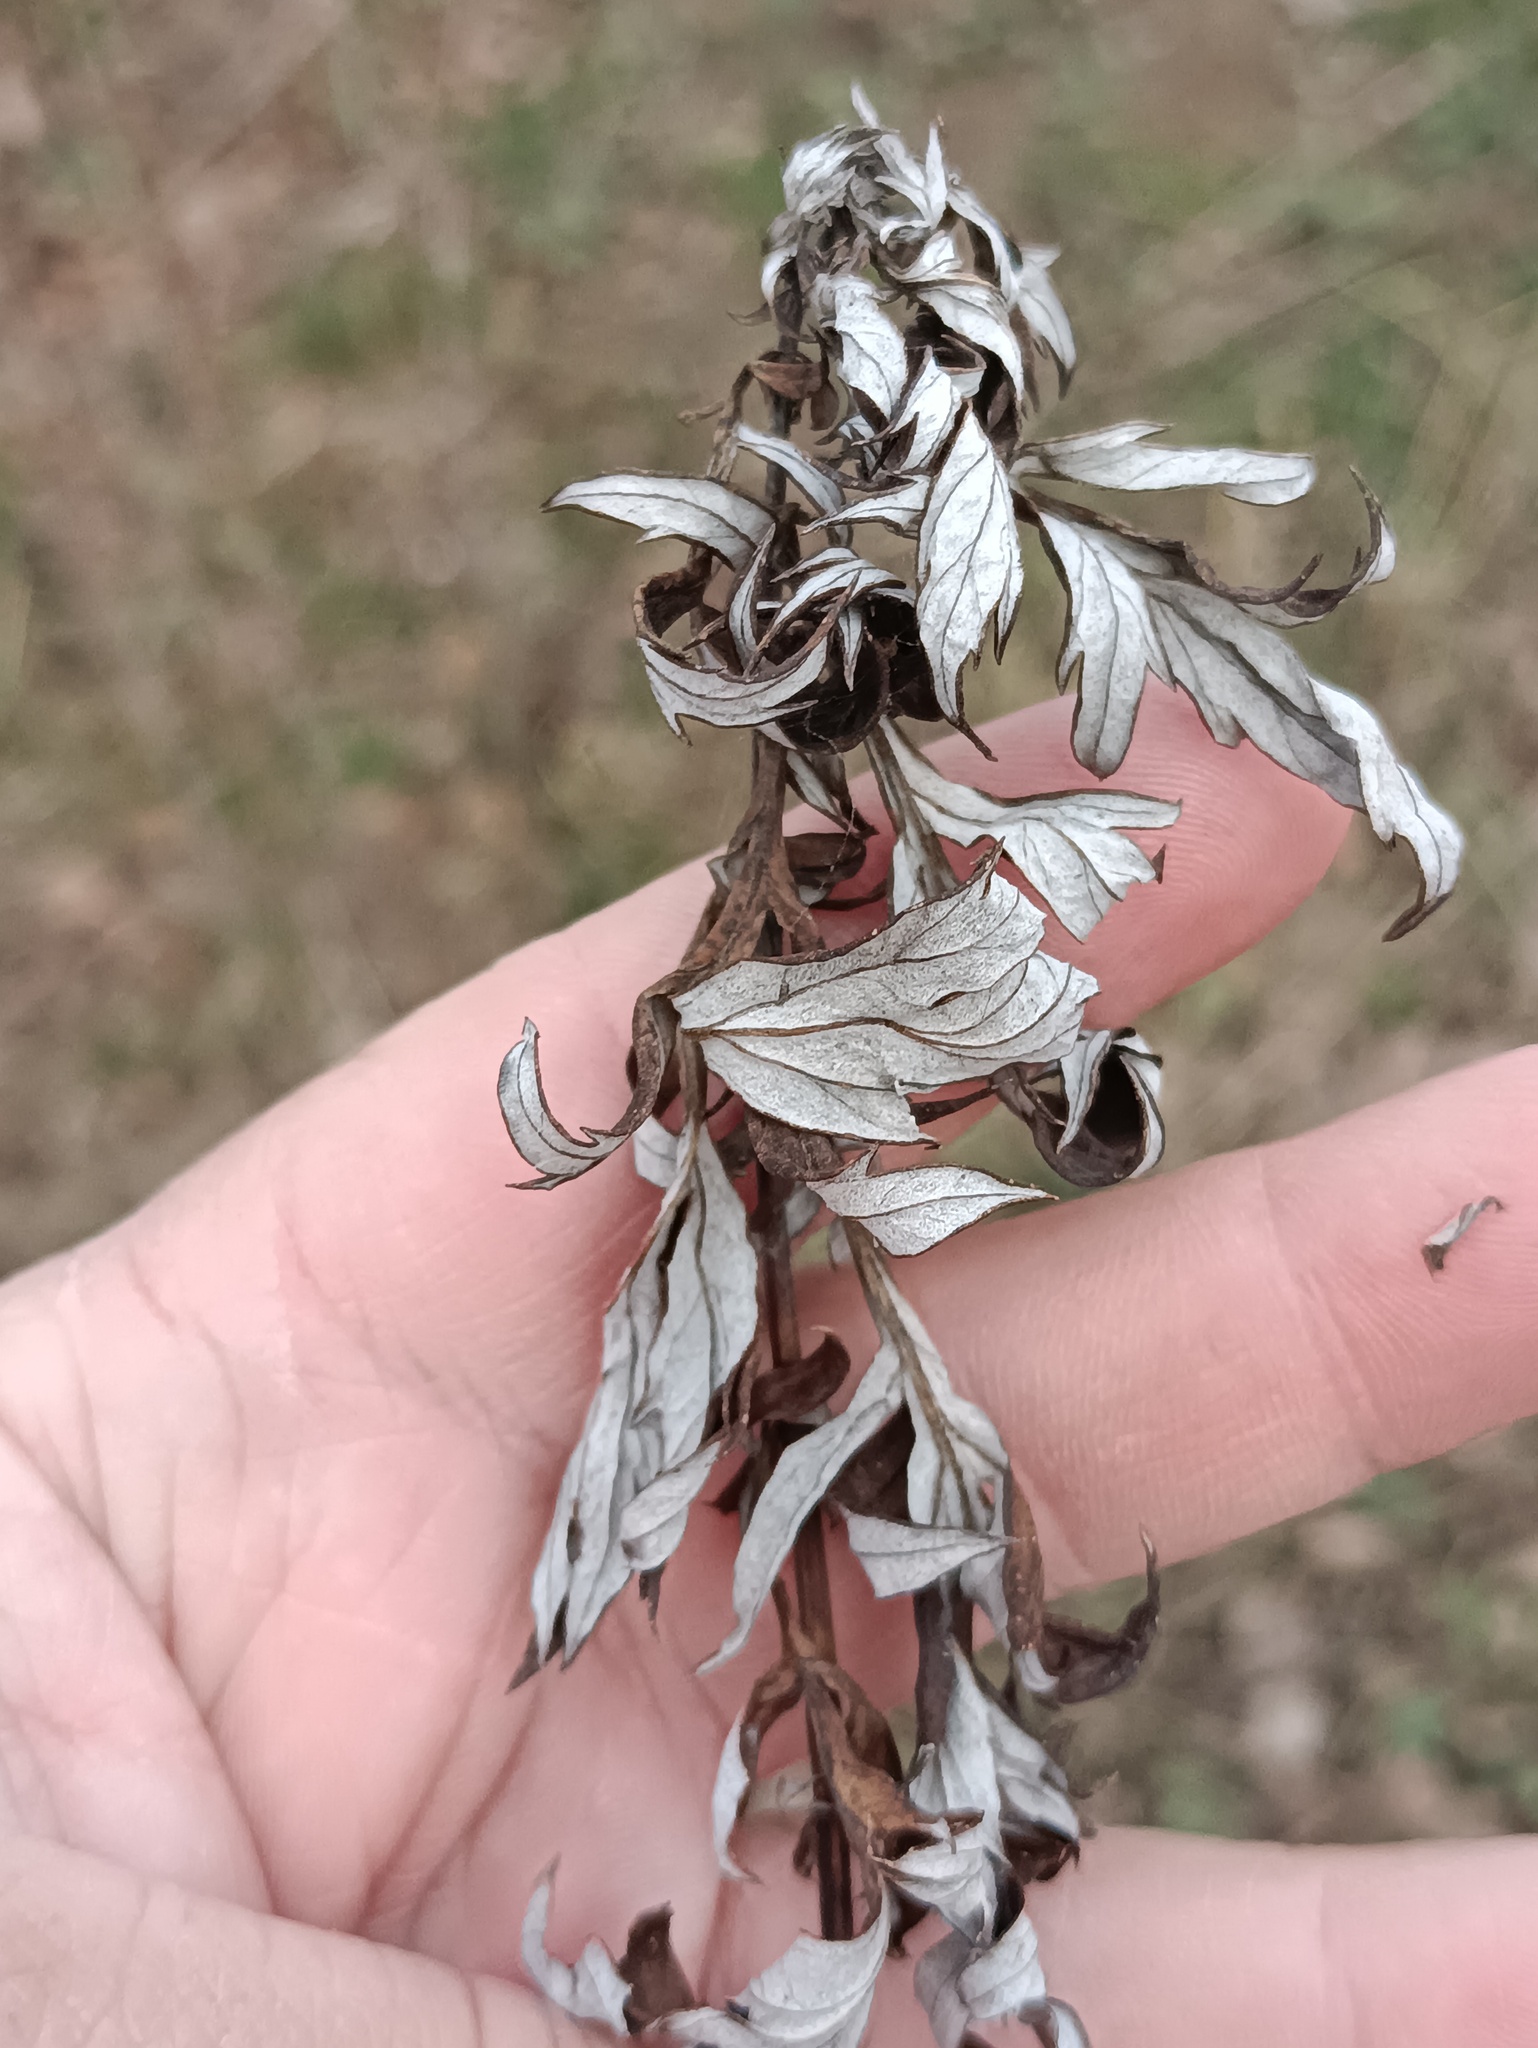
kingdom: Plantae
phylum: Tracheophyta
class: Magnoliopsida
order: Asterales
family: Asteraceae
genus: Artemisia
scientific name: Artemisia vulgaris
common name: Mugwort
